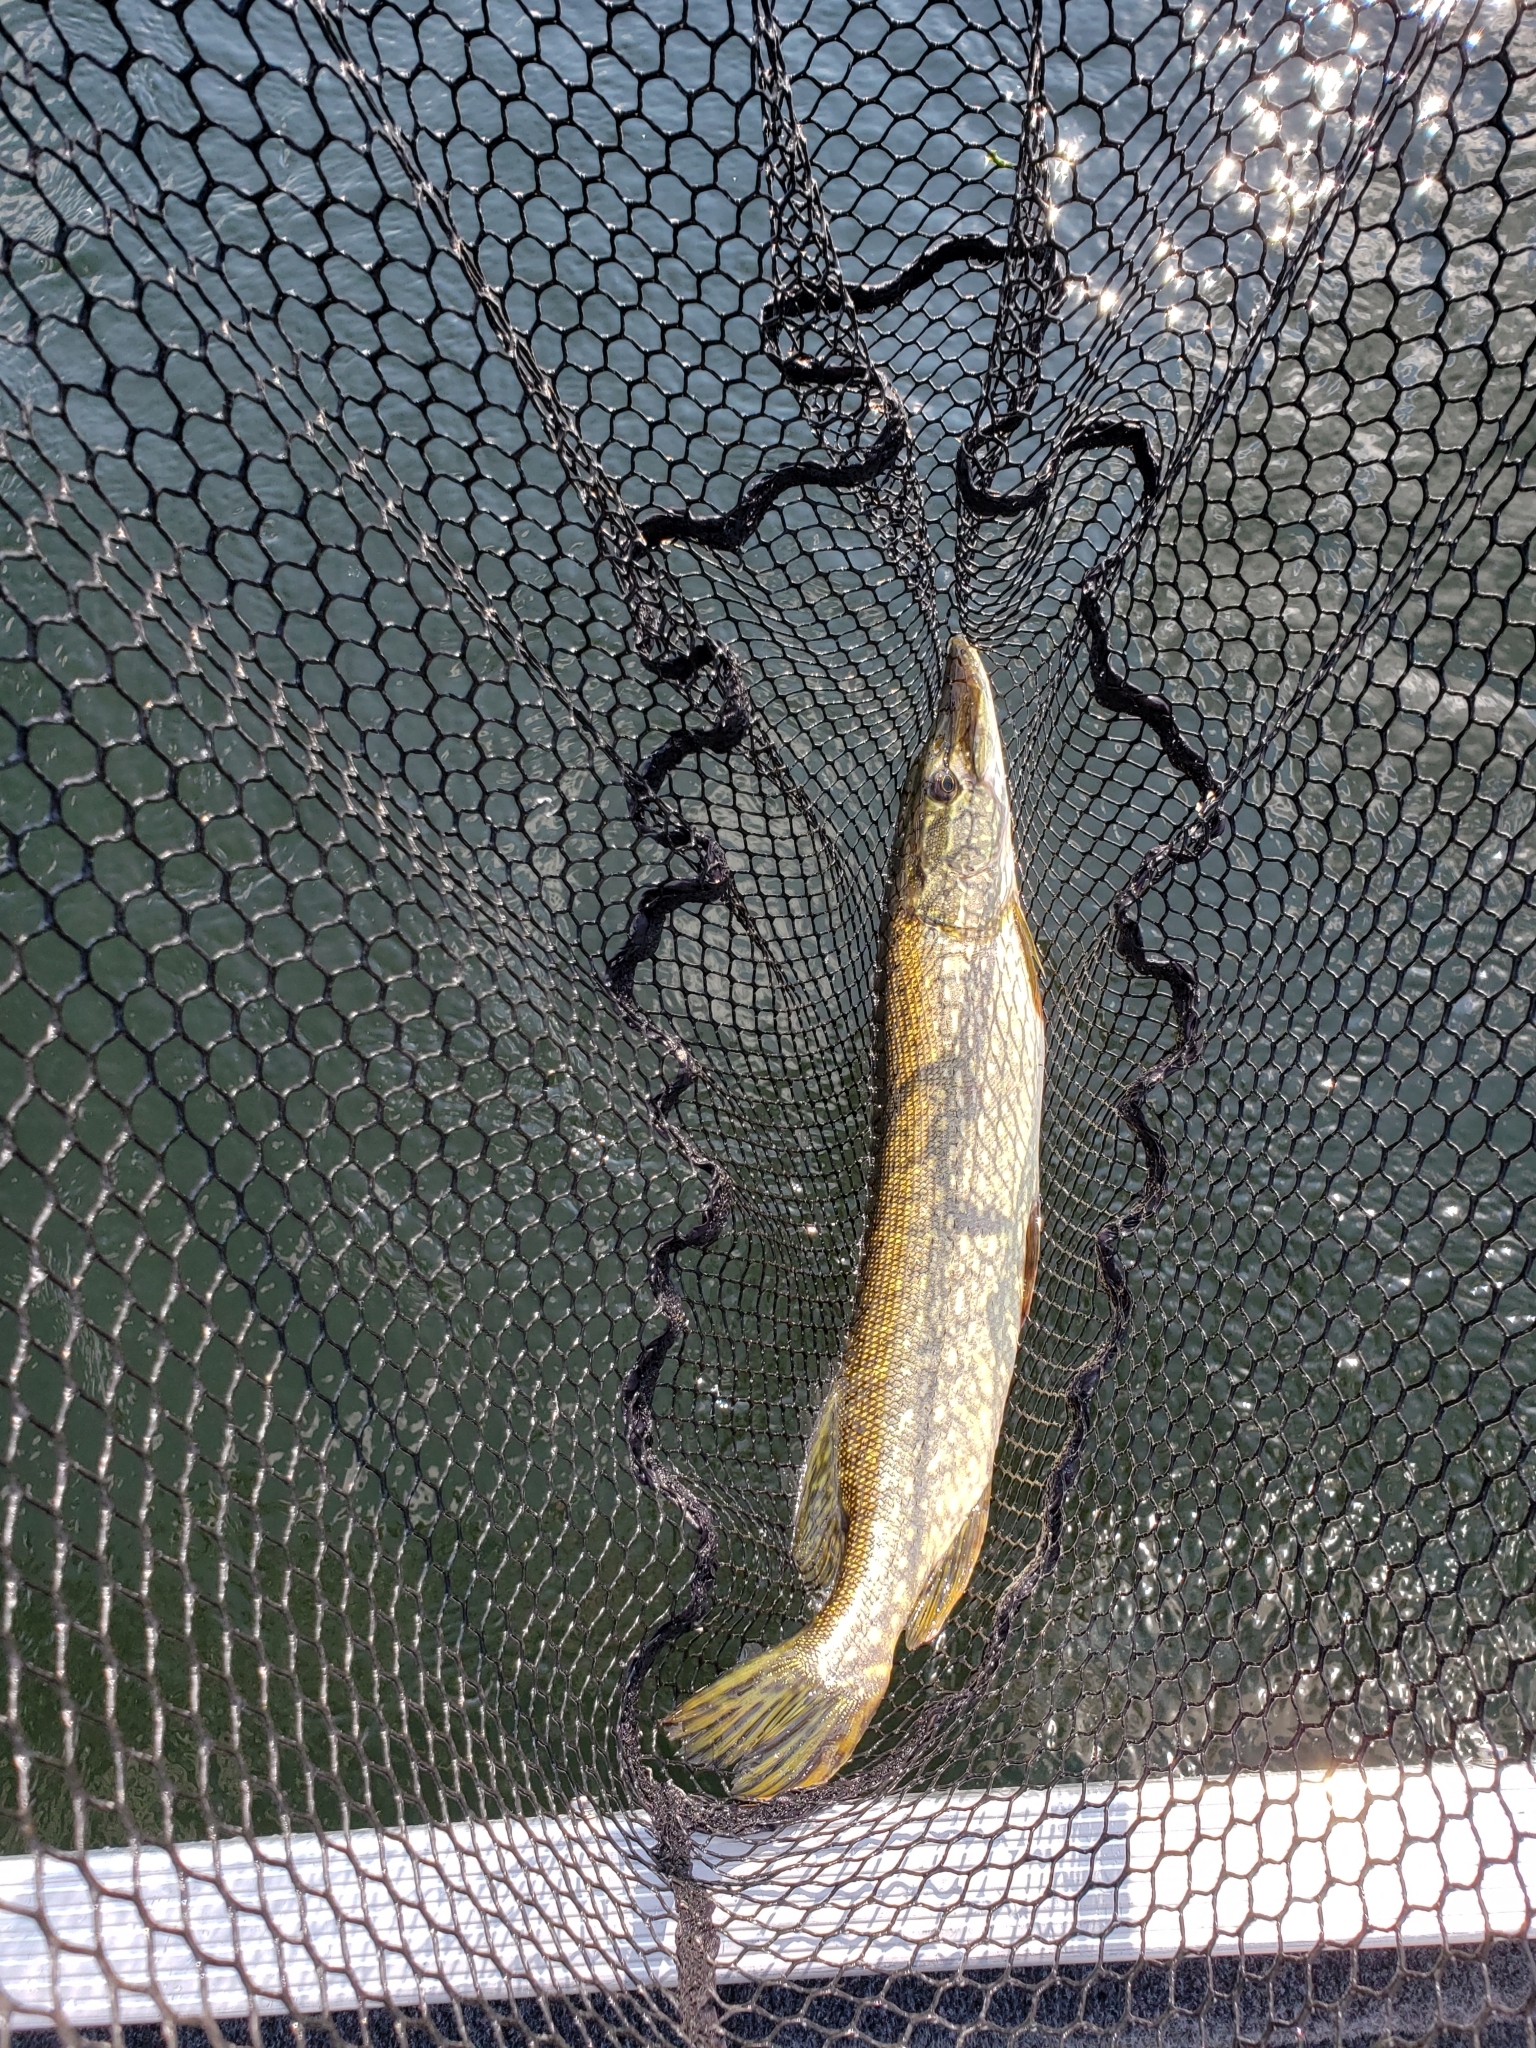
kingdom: Animalia
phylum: Chordata
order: Esociformes
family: Esocidae
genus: Esox
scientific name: Esox lucius
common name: Northern pike
